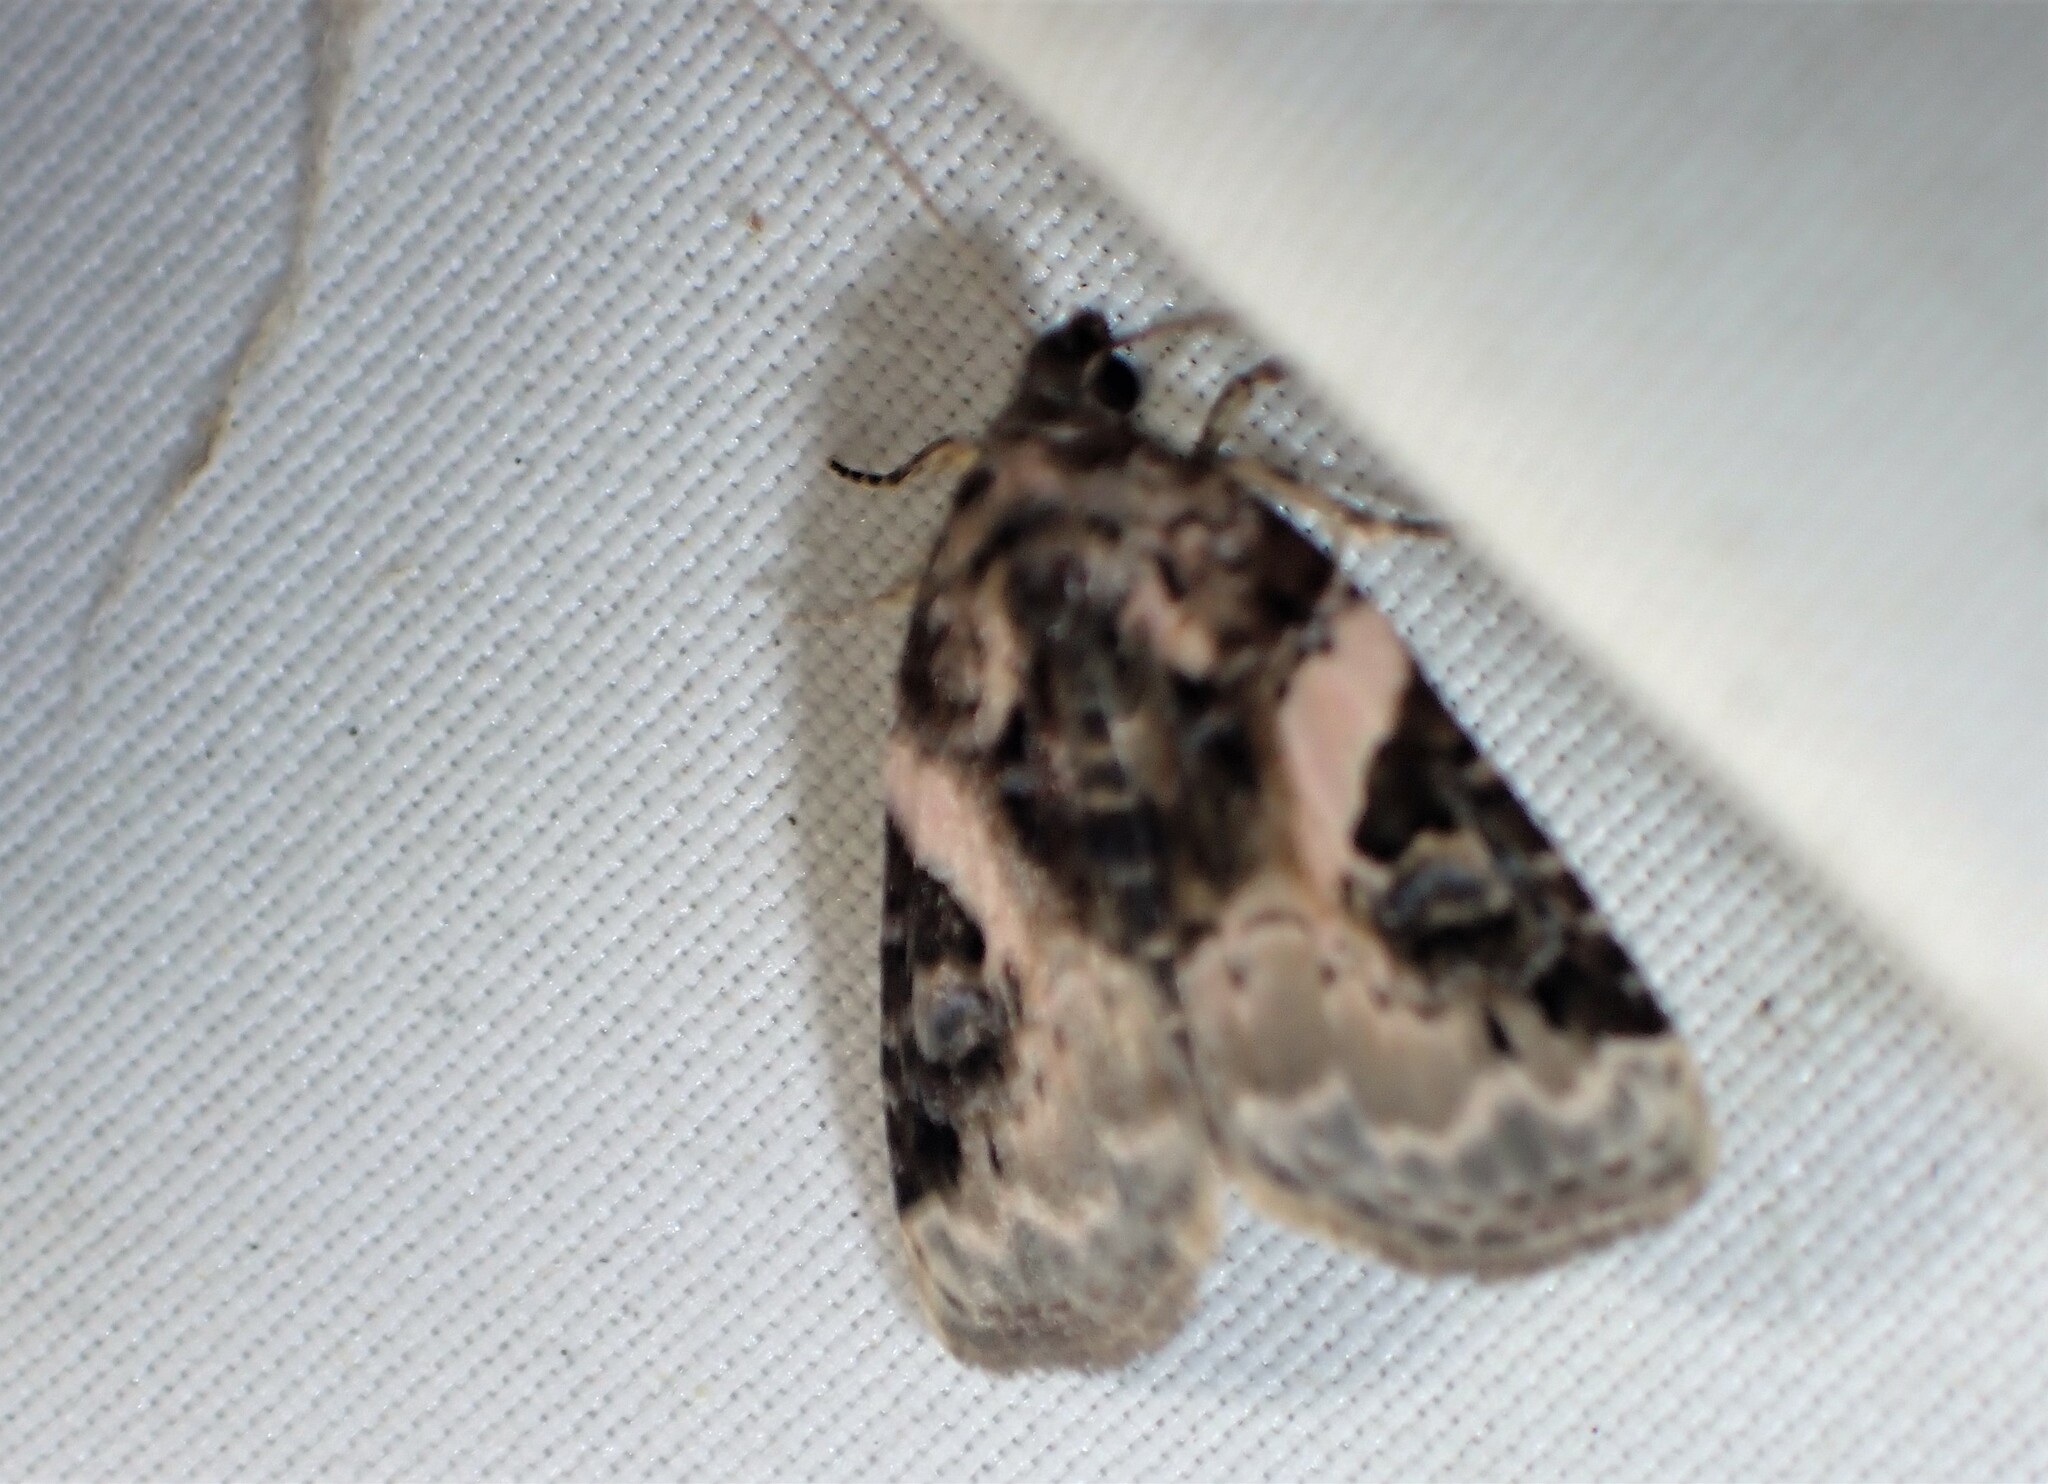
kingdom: Animalia
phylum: Arthropoda
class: Insecta
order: Lepidoptera
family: Noctuidae
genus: Pseudeustrotia
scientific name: Pseudeustrotia carneola
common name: Pink-barred lithacodia moth
